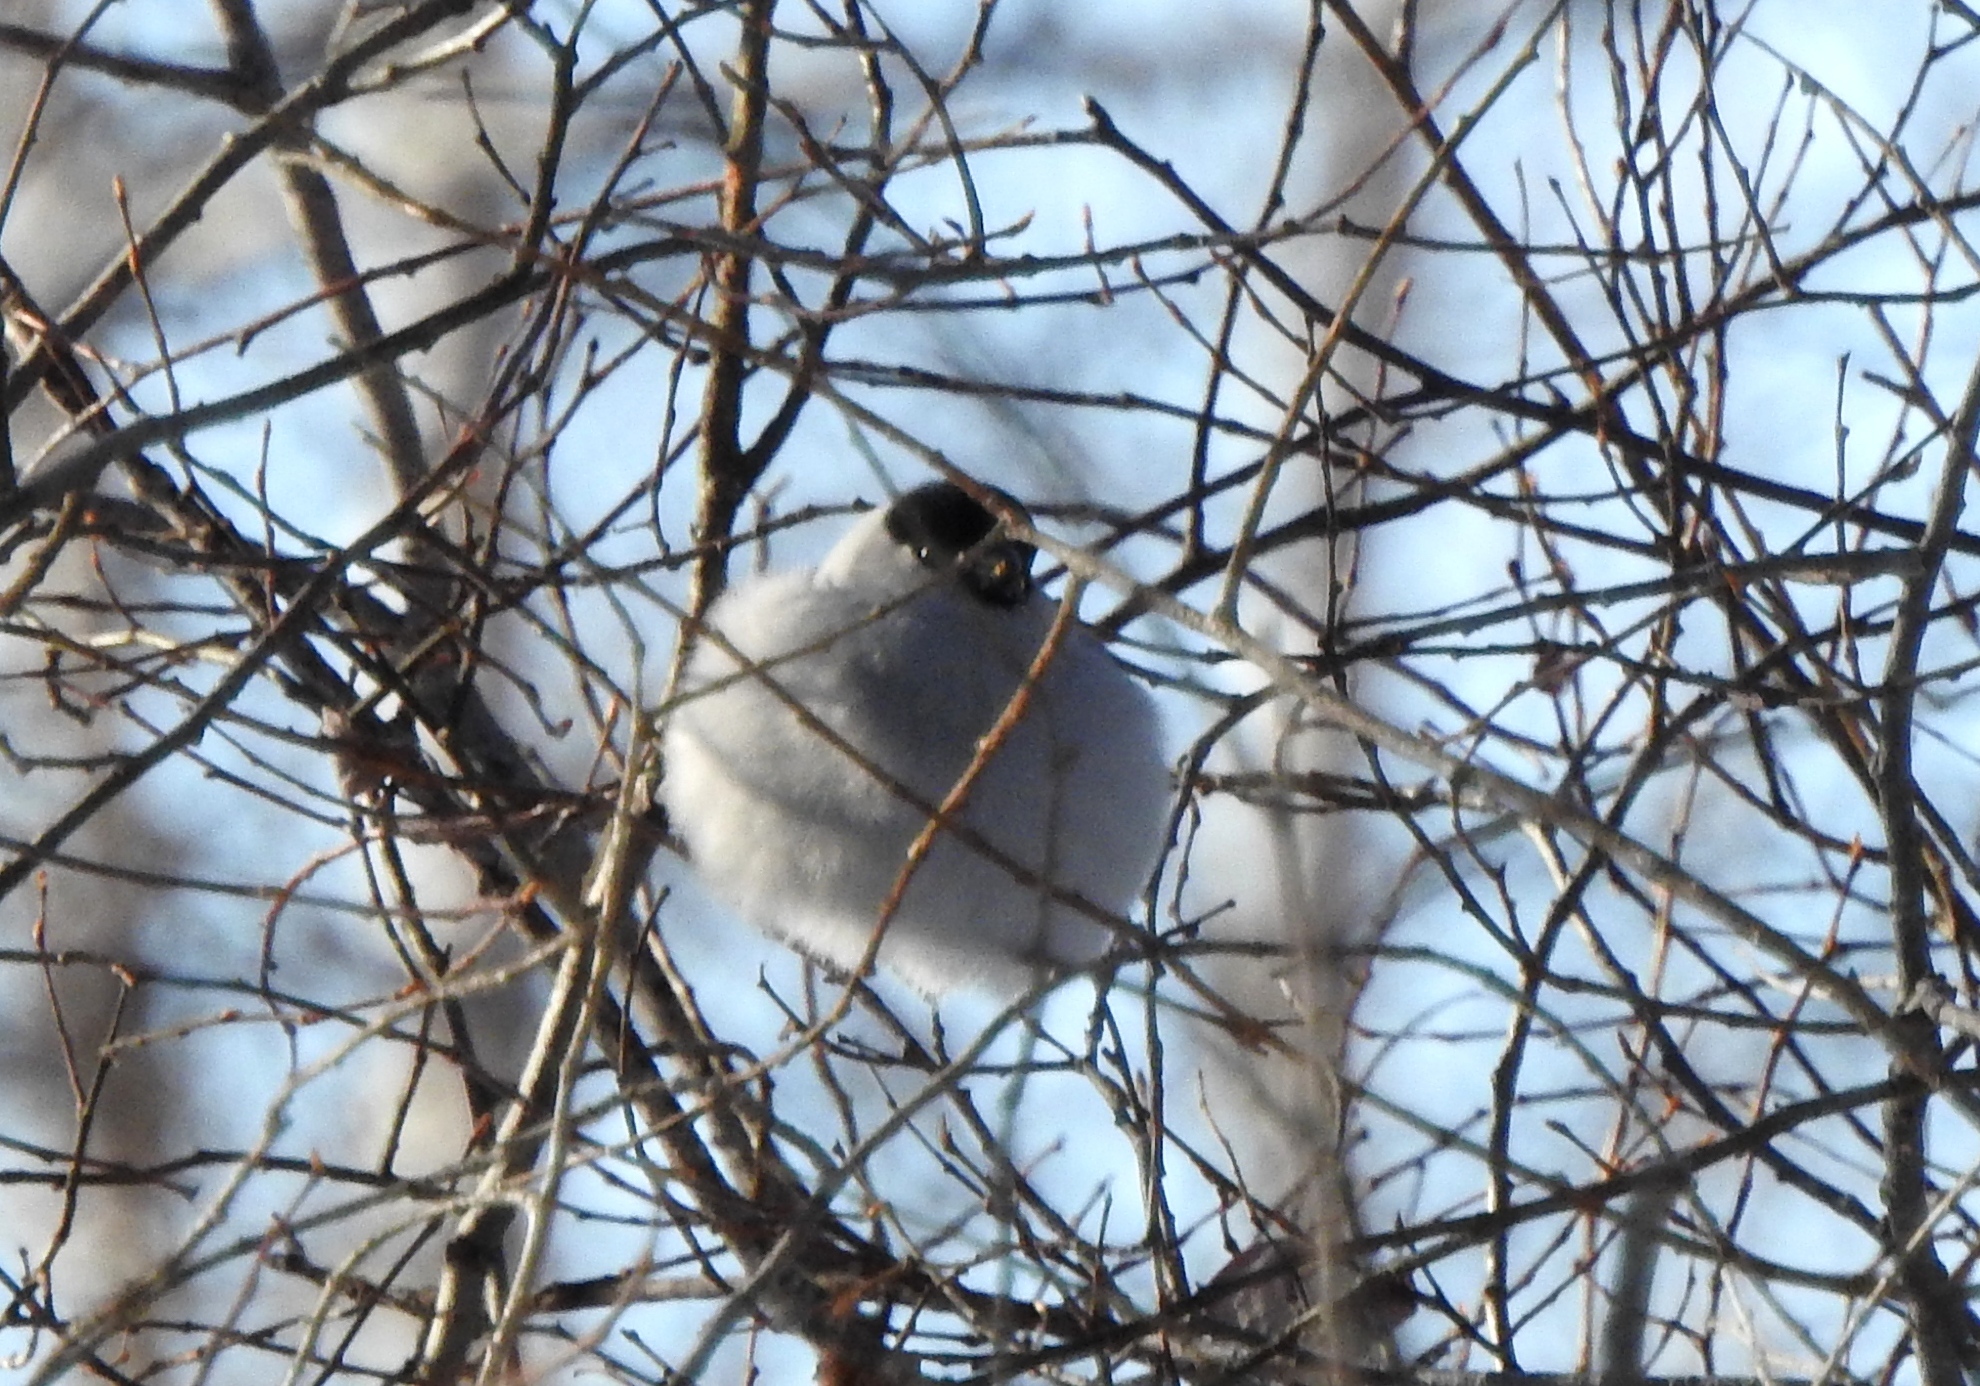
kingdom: Animalia
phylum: Chordata
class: Aves
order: Passeriformes
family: Fringillidae
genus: Pyrrhula
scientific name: Pyrrhula pyrrhula
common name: Eurasian bullfinch
